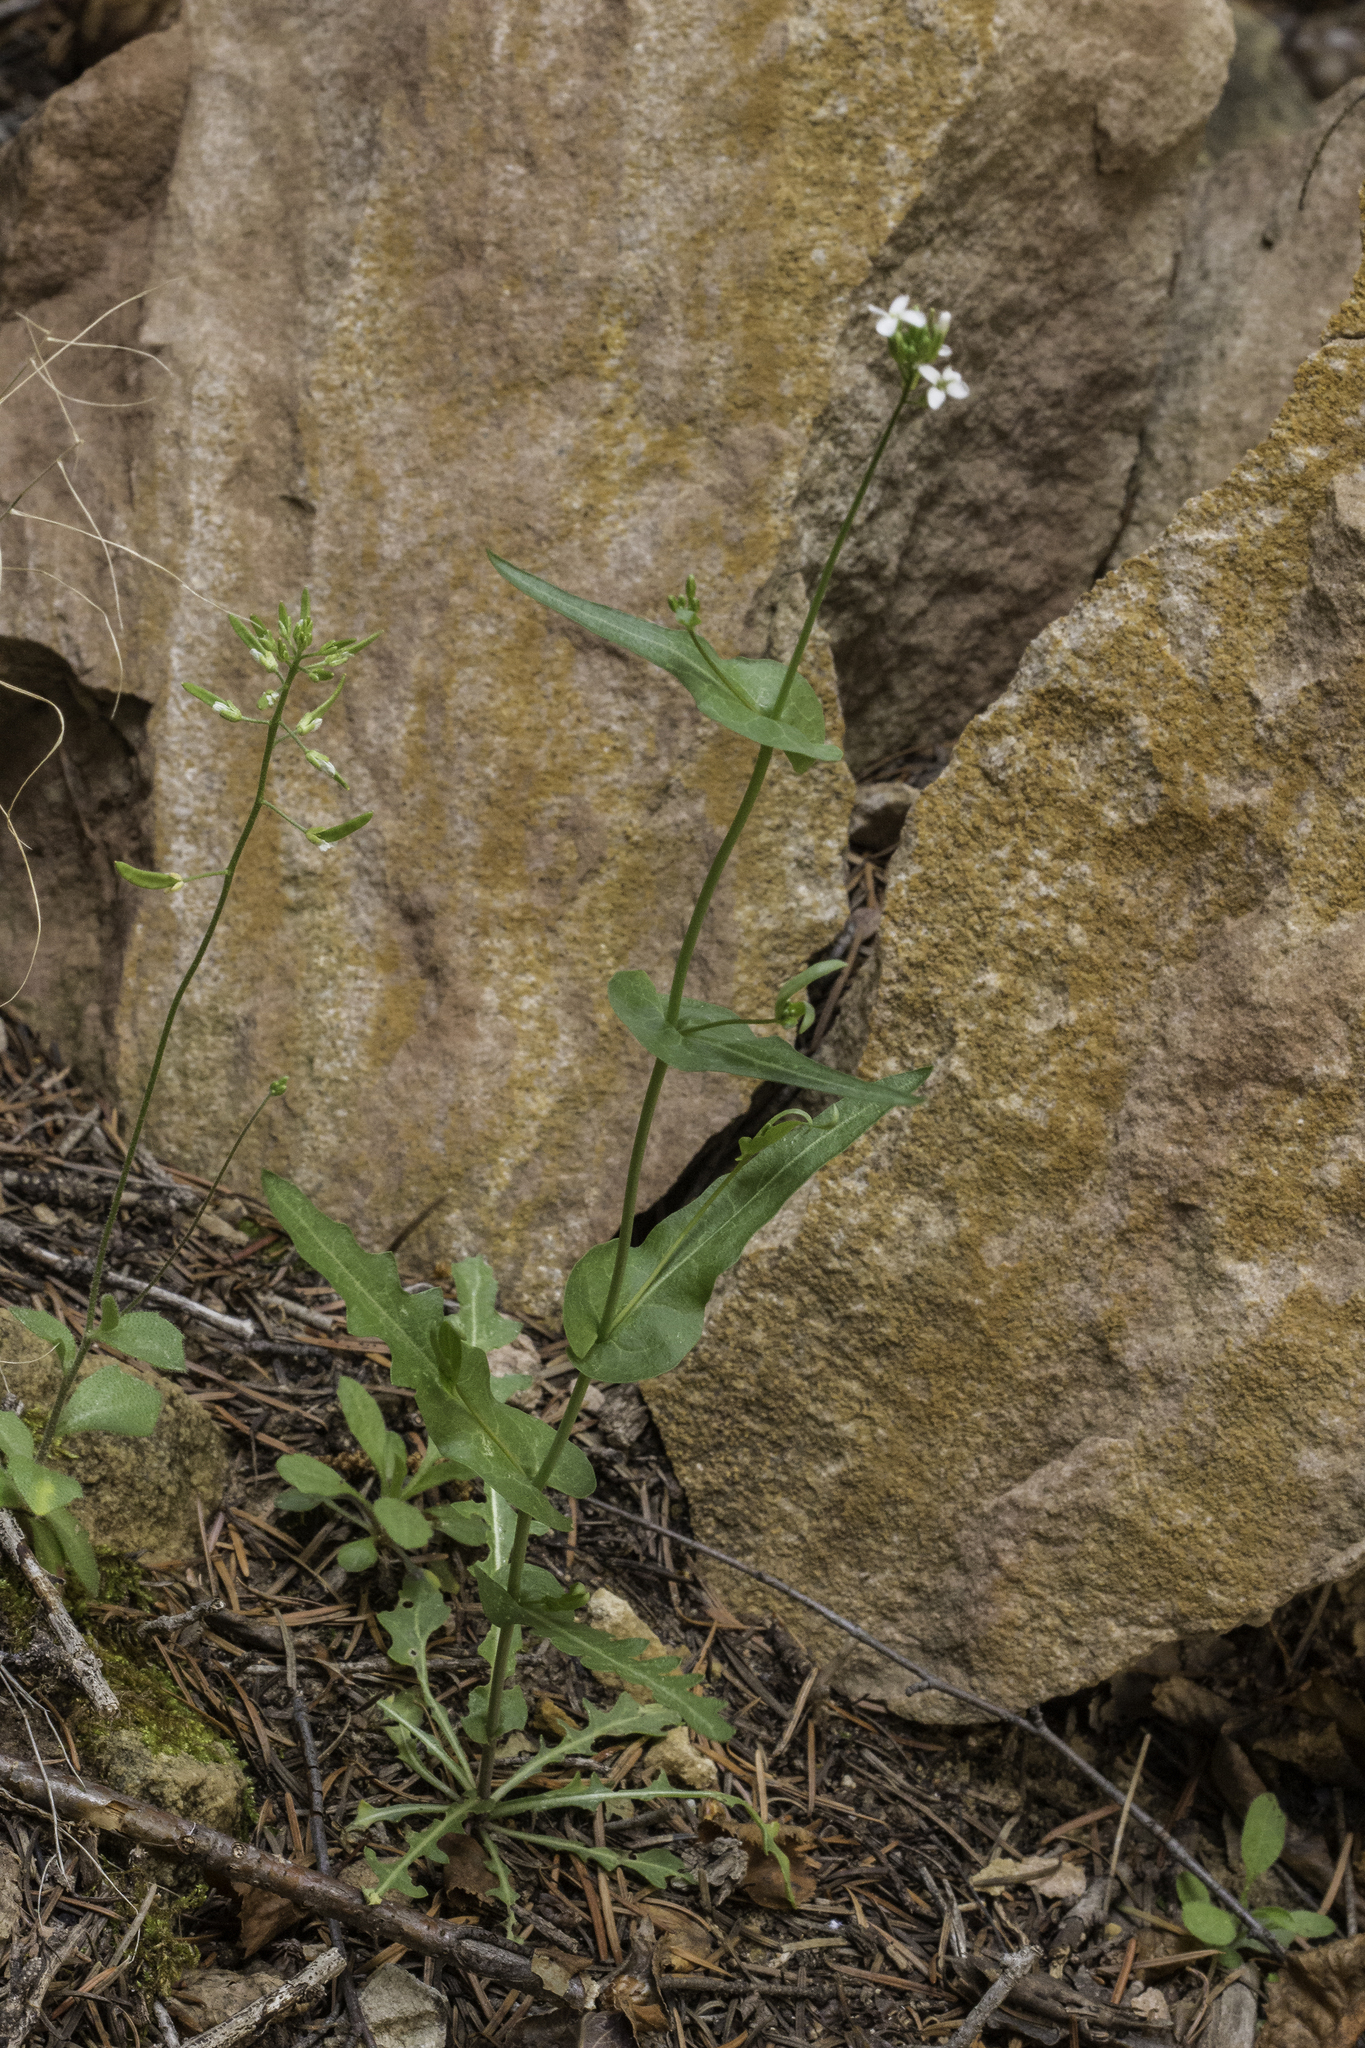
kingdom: Plantae
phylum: Tracheophyta
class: Magnoliopsida
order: Brassicales
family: Brassicaceae
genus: Mostacillastrum
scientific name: Mostacillastrum purpusii
